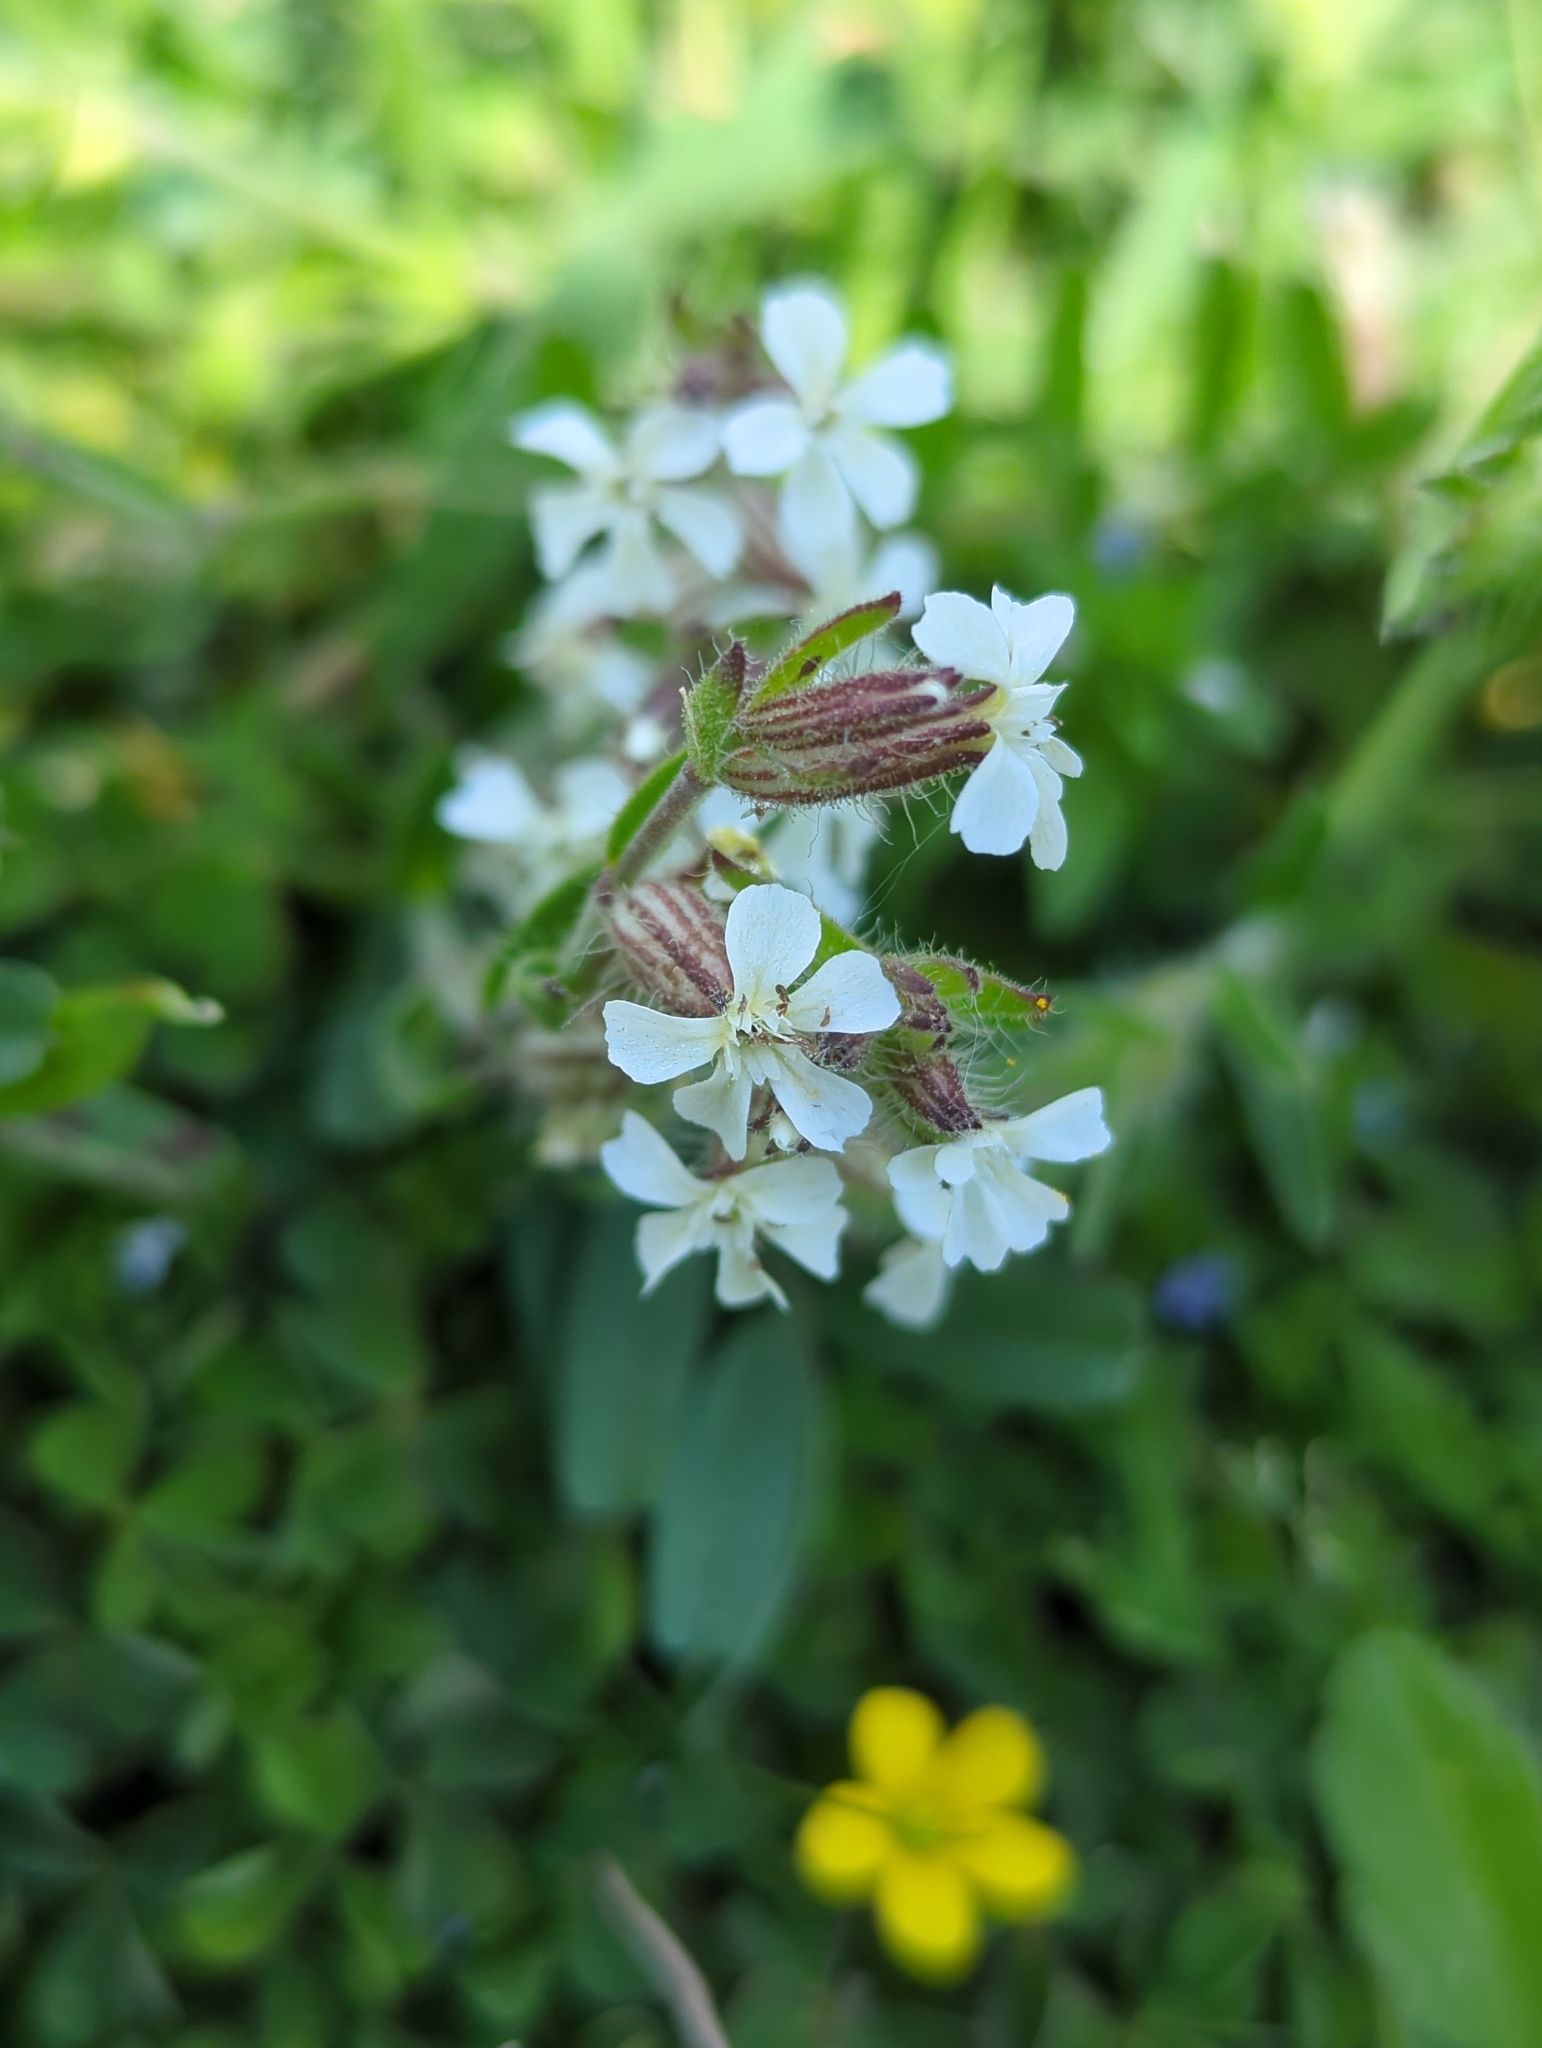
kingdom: Plantae
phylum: Tracheophyta
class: Magnoliopsida
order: Caryophyllales
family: Caryophyllaceae
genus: Silene
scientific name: Silene gallica
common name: Small-flowered catchfly
